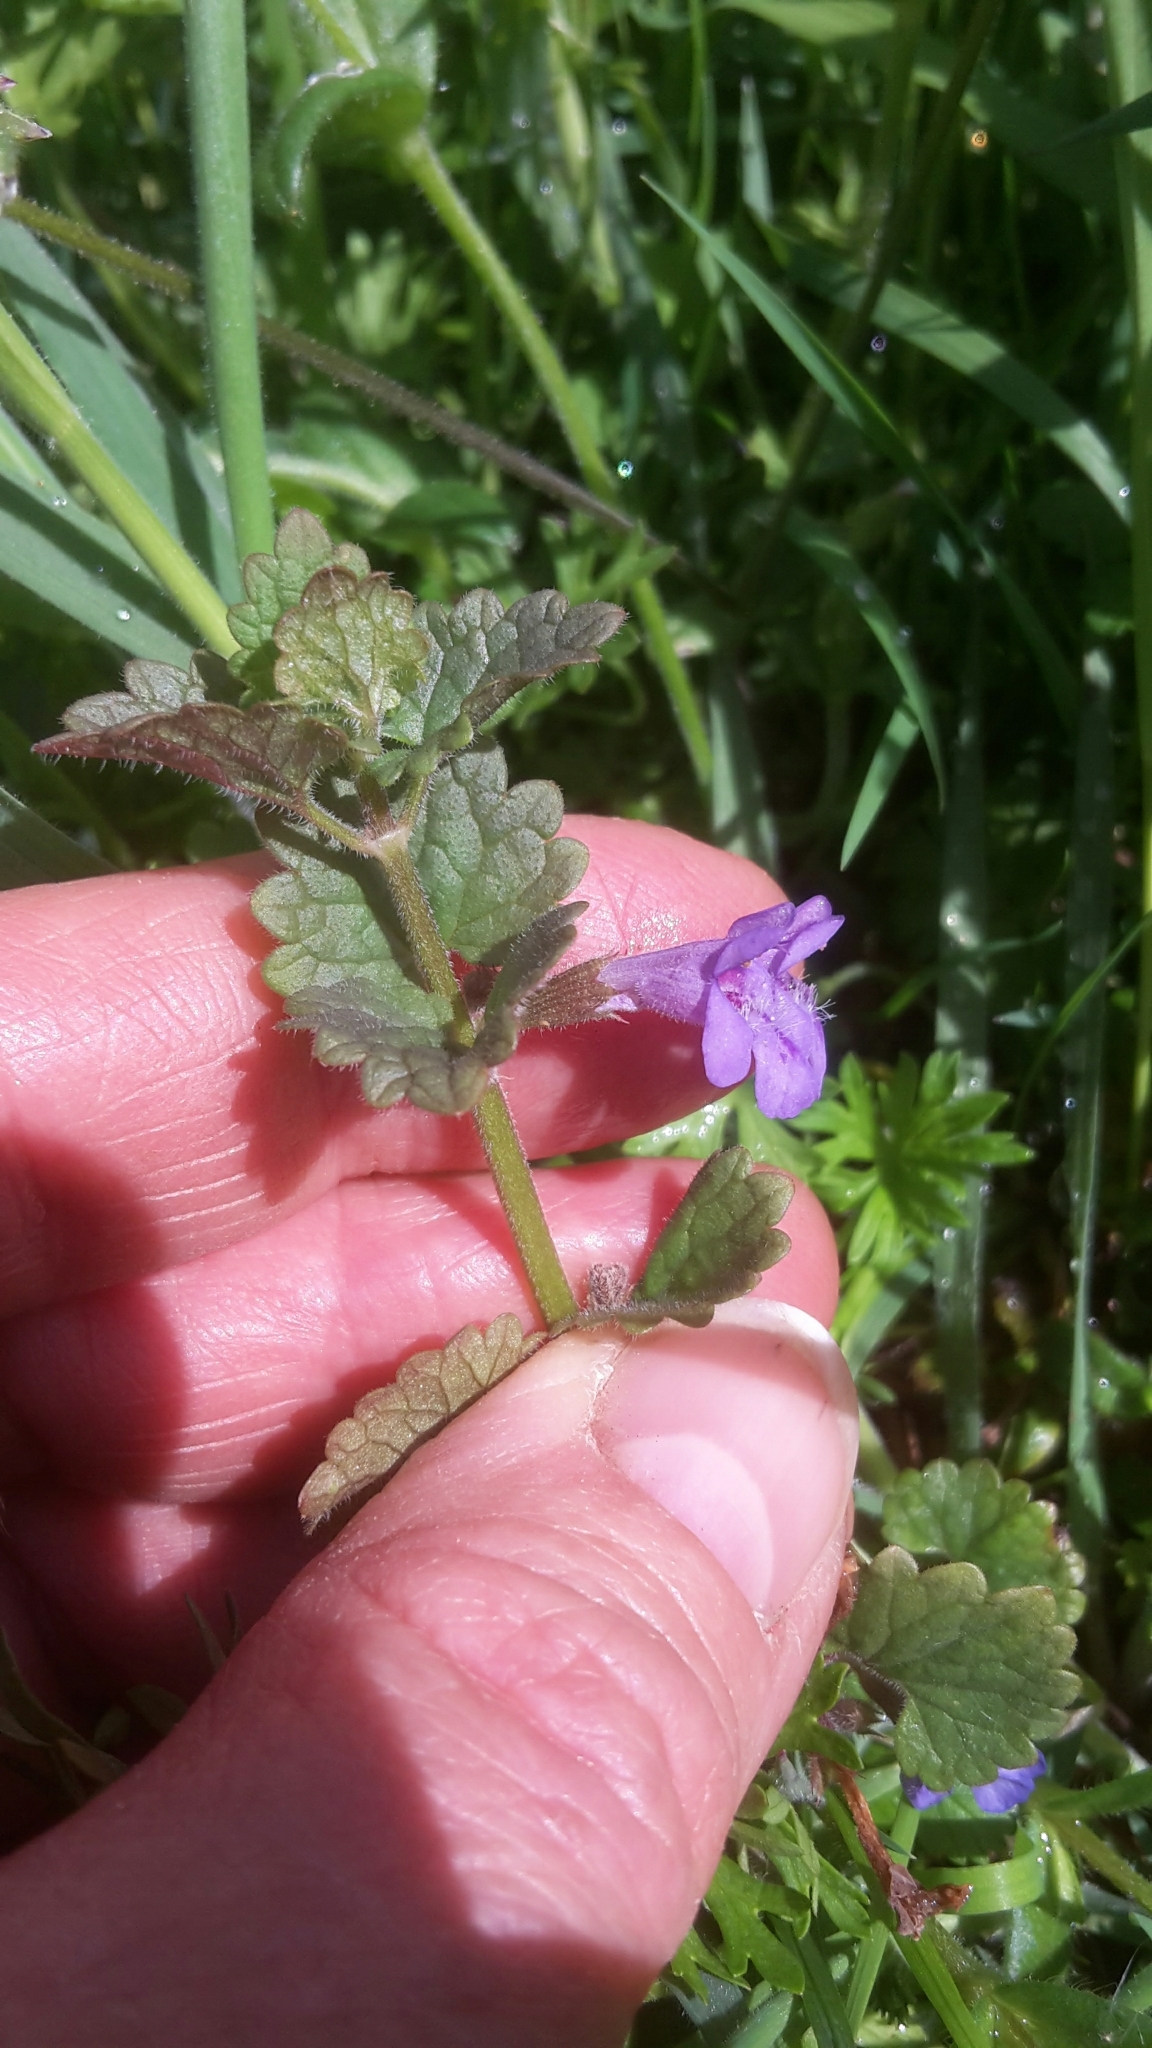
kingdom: Plantae
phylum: Tracheophyta
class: Magnoliopsida
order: Lamiales
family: Lamiaceae
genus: Glechoma
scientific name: Glechoma hederacea
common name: Ground ivy
